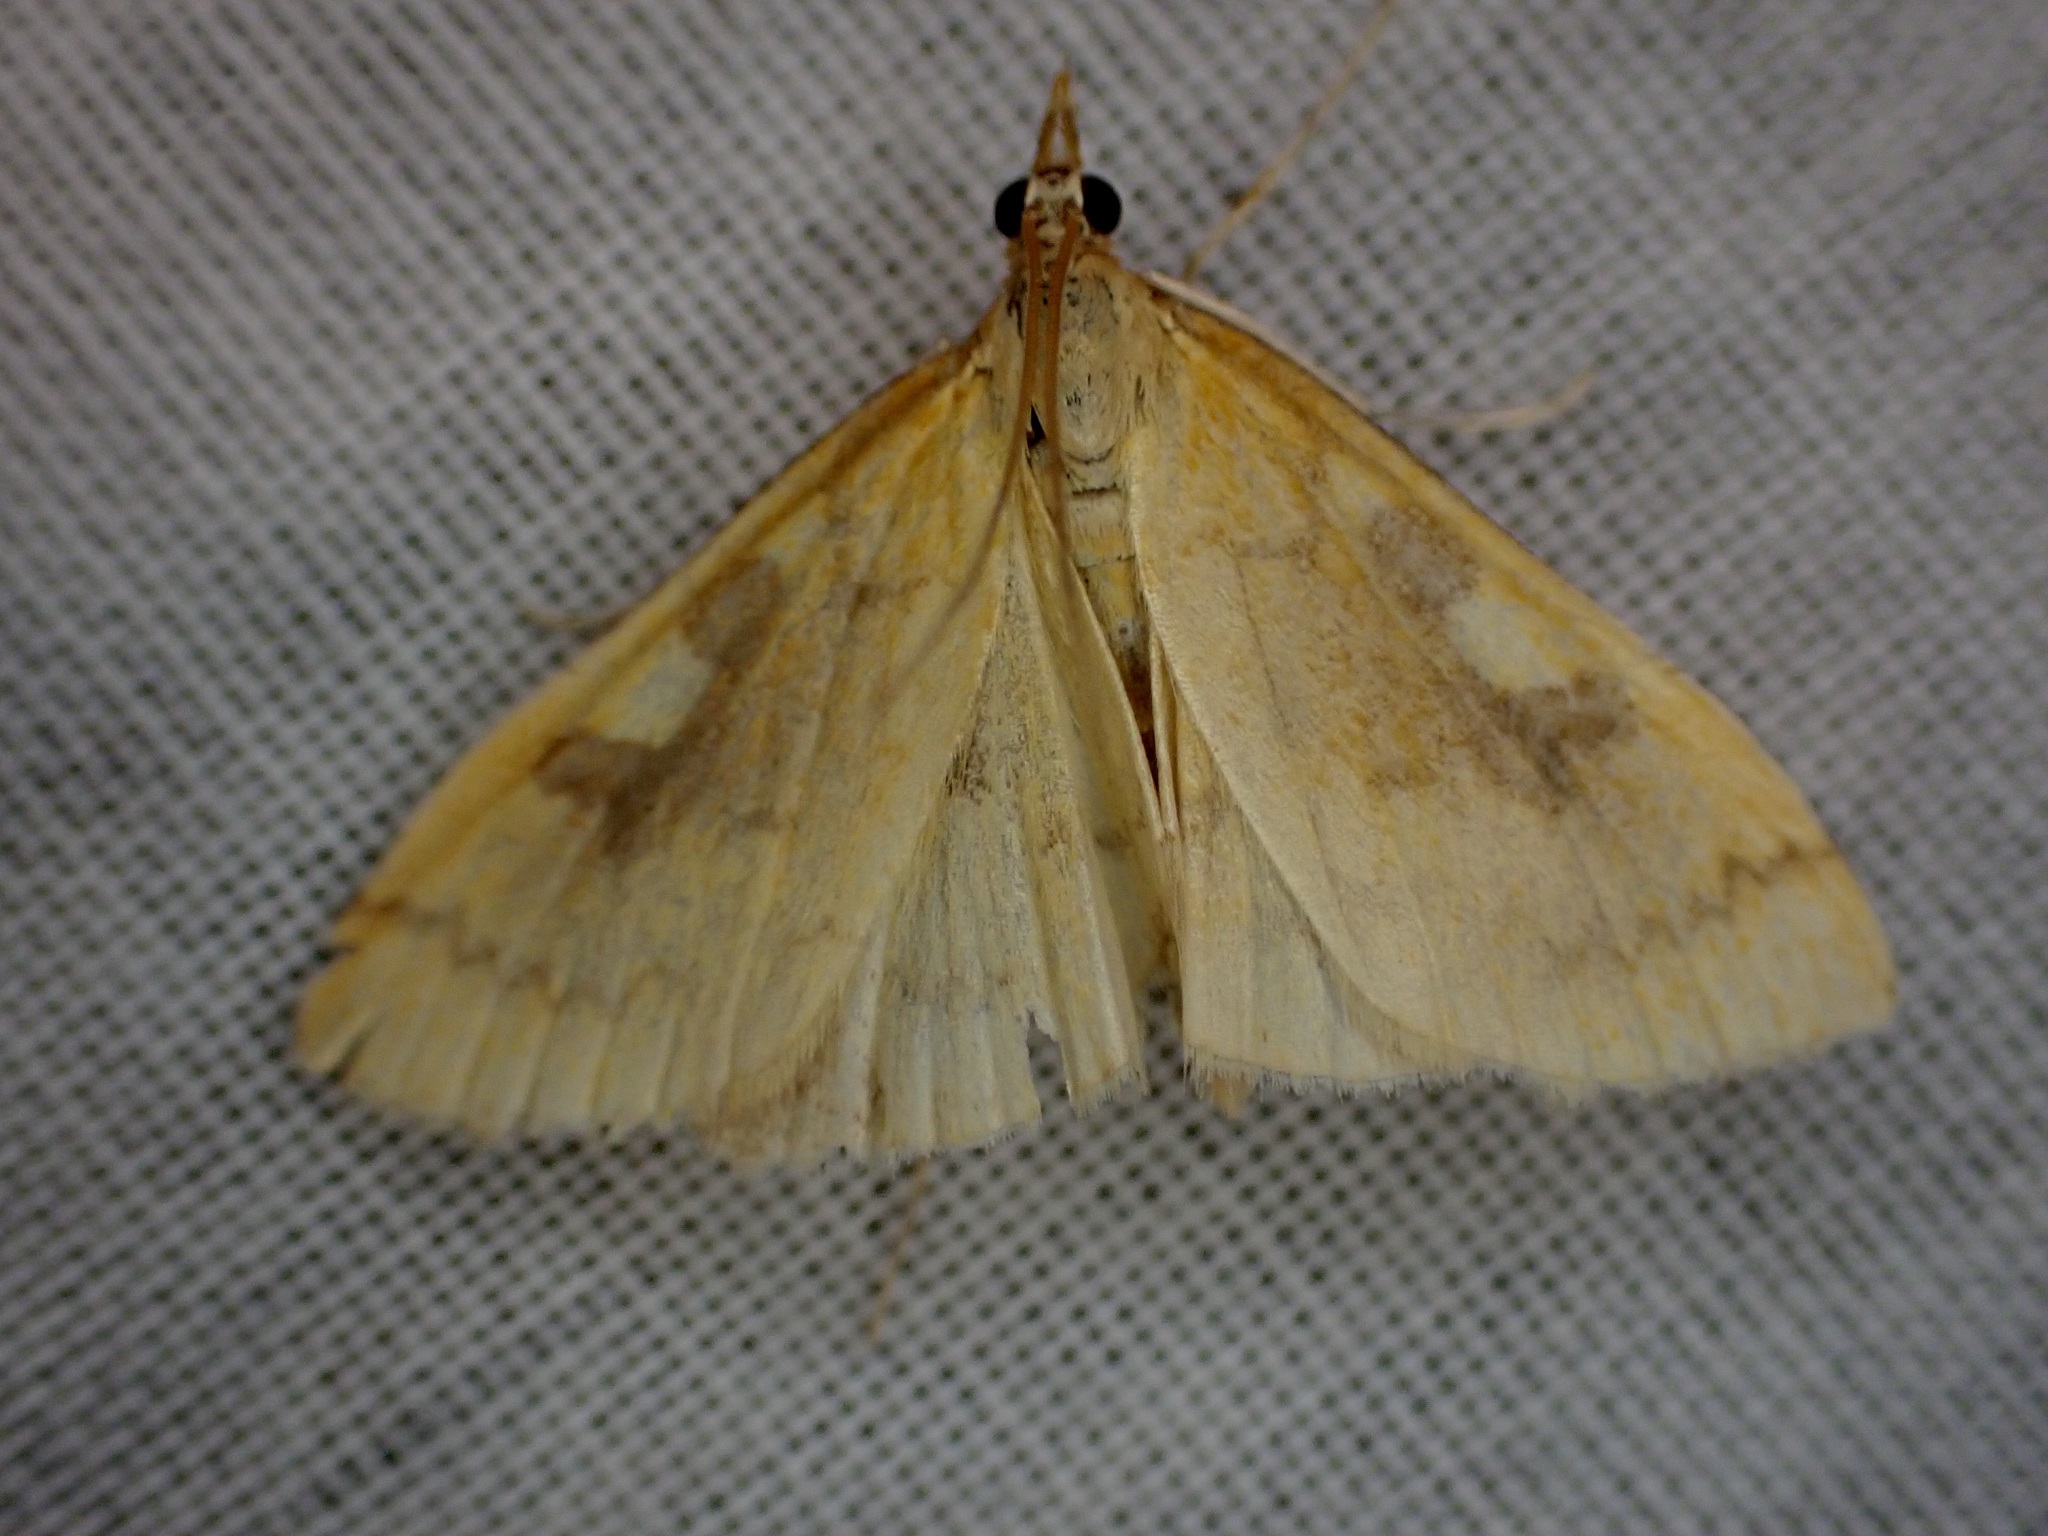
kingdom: Animalia
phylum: Arthropoda
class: Insecta
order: Lepidoptera
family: Crambidae
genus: Udea
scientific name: Udea Mnesictena flavidalis
